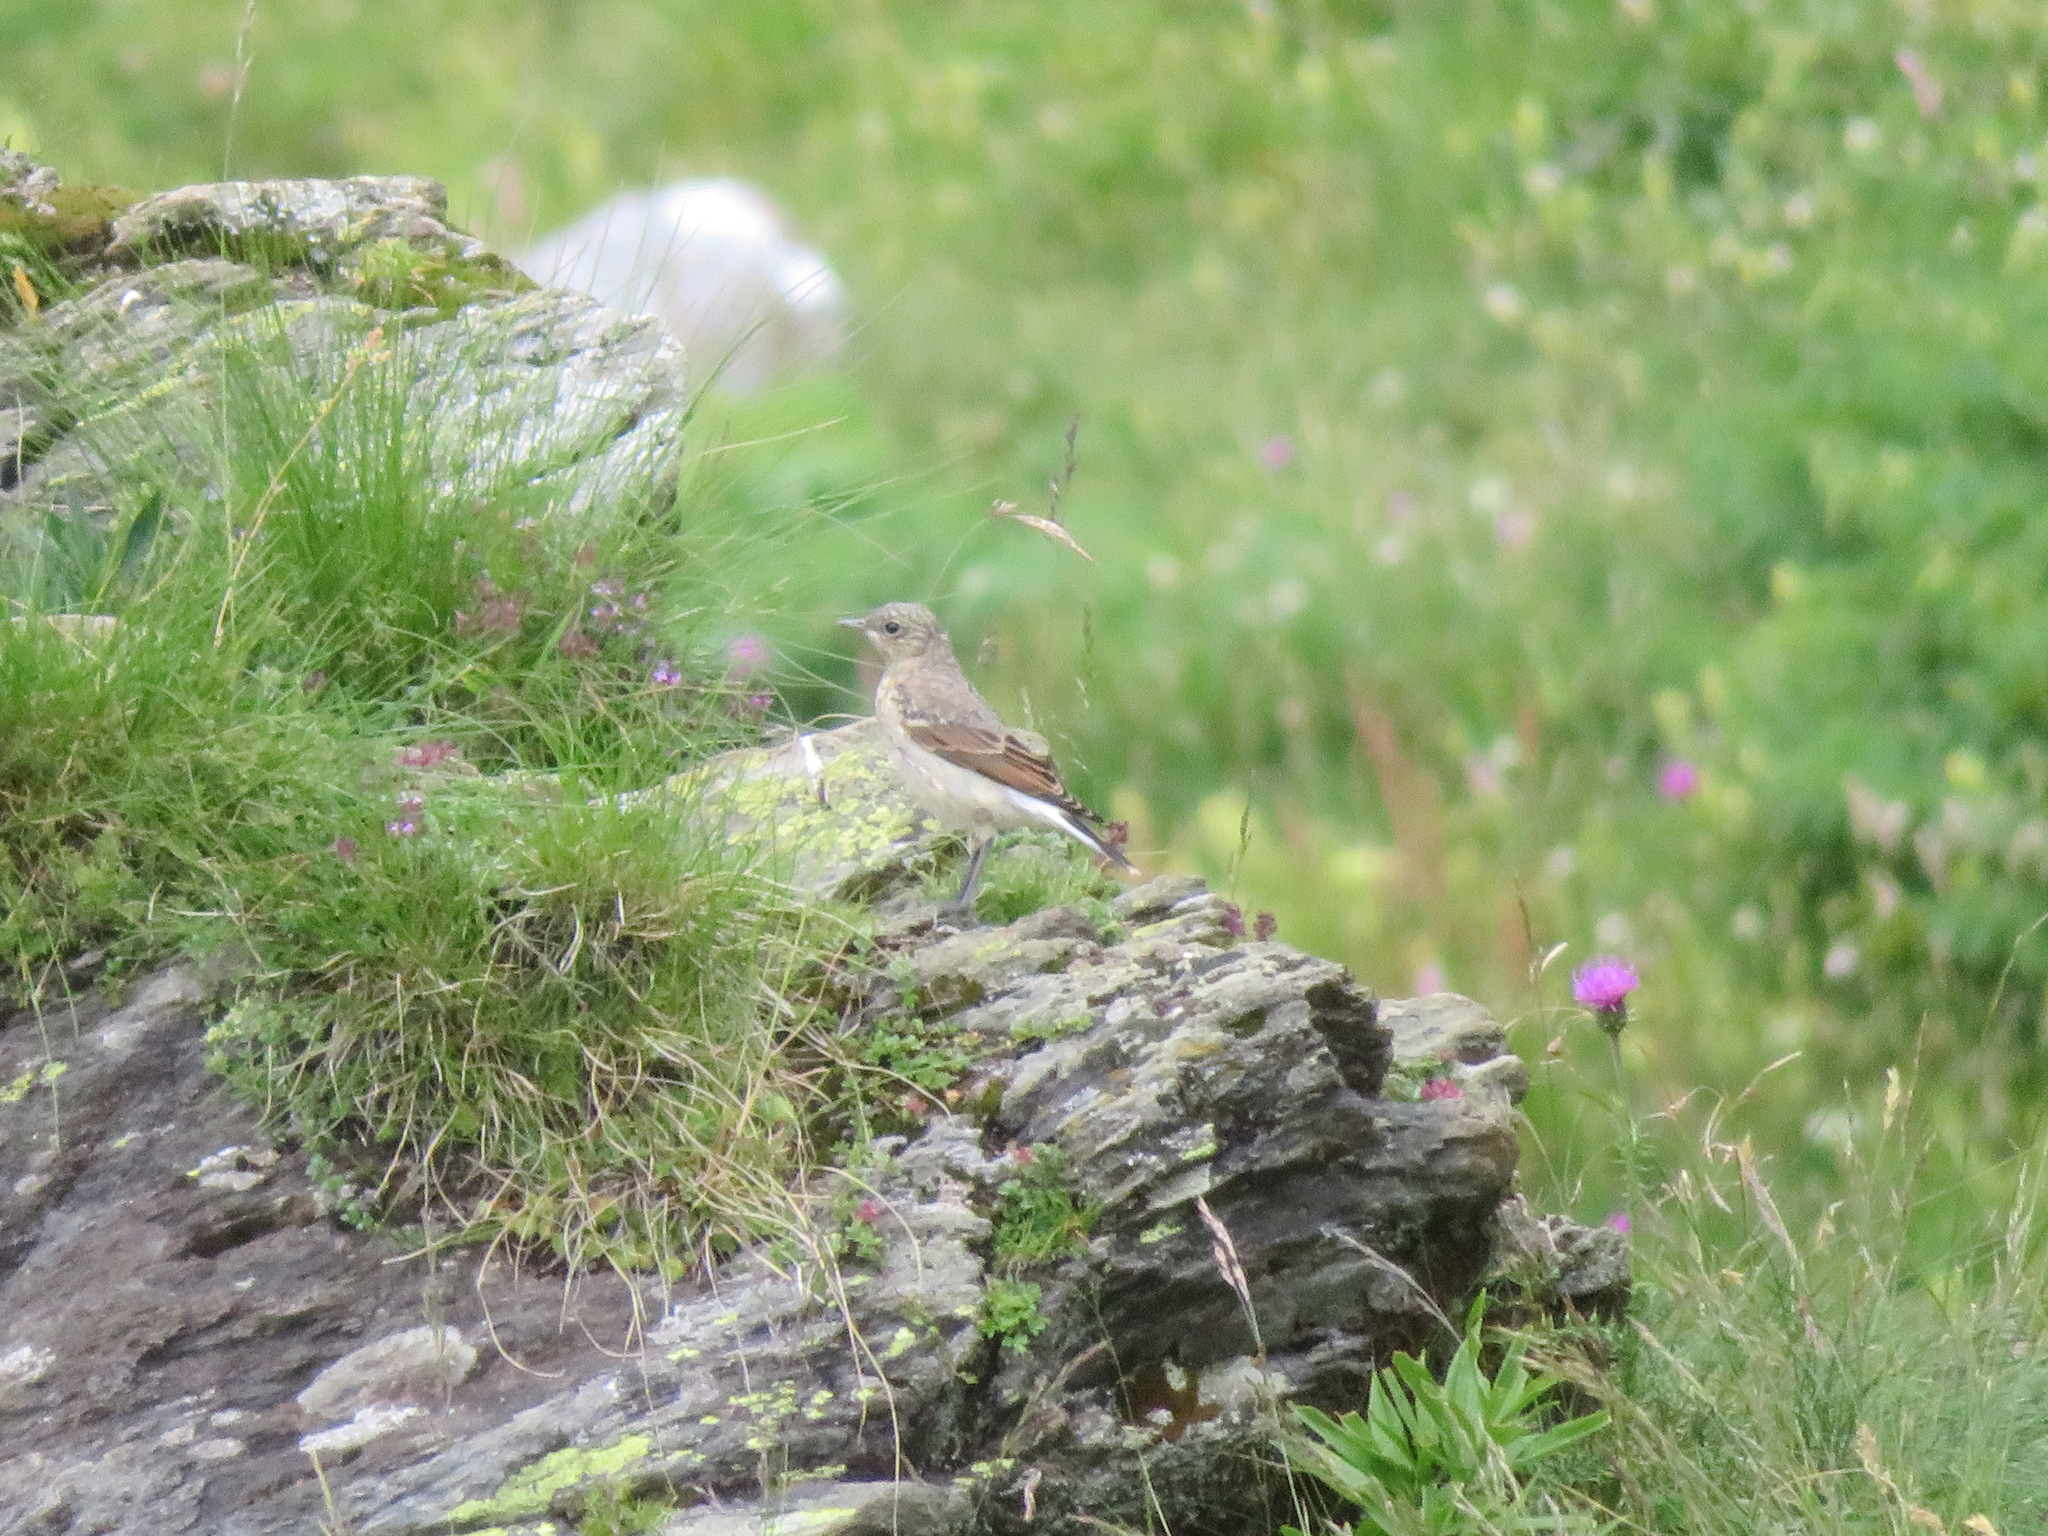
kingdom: Animalia
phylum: Chordata
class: Aves
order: Passeriformes
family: Muscicapidae
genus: Oenanthe
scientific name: Oenanthe oenanthe
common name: Northern wheatear
